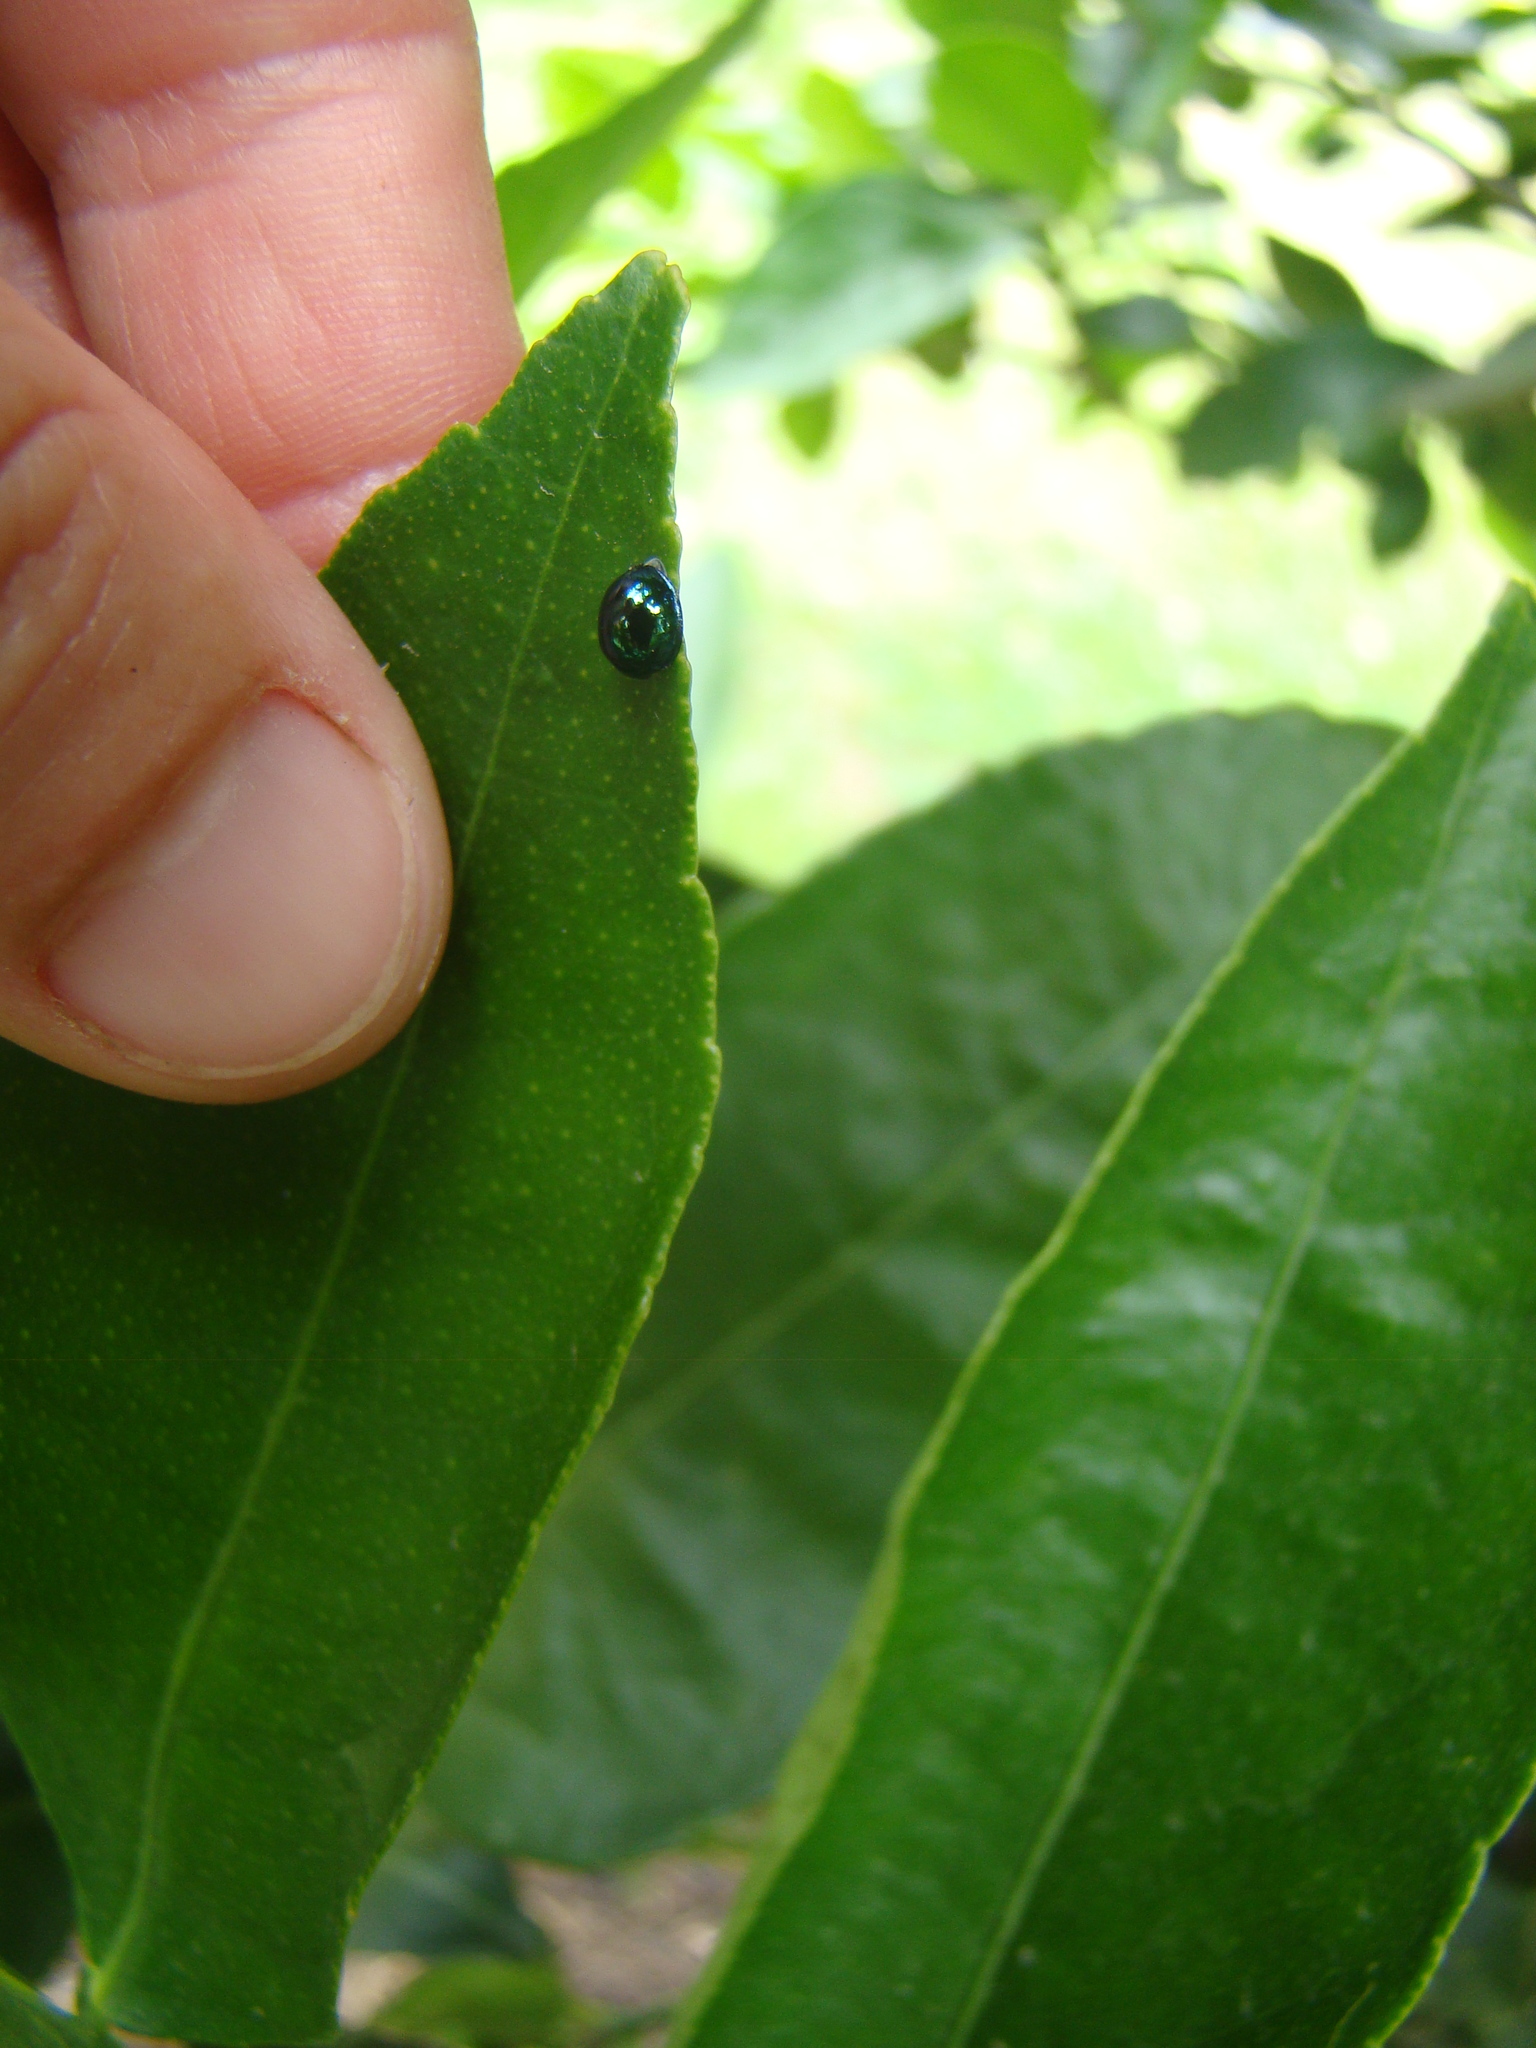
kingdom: Animalia
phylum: Arthropoda
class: Insecta
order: Coleoptera
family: Coccinellidae
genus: Halmus
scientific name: Halmus chalybeus
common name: Steel blue ladybird beetle
